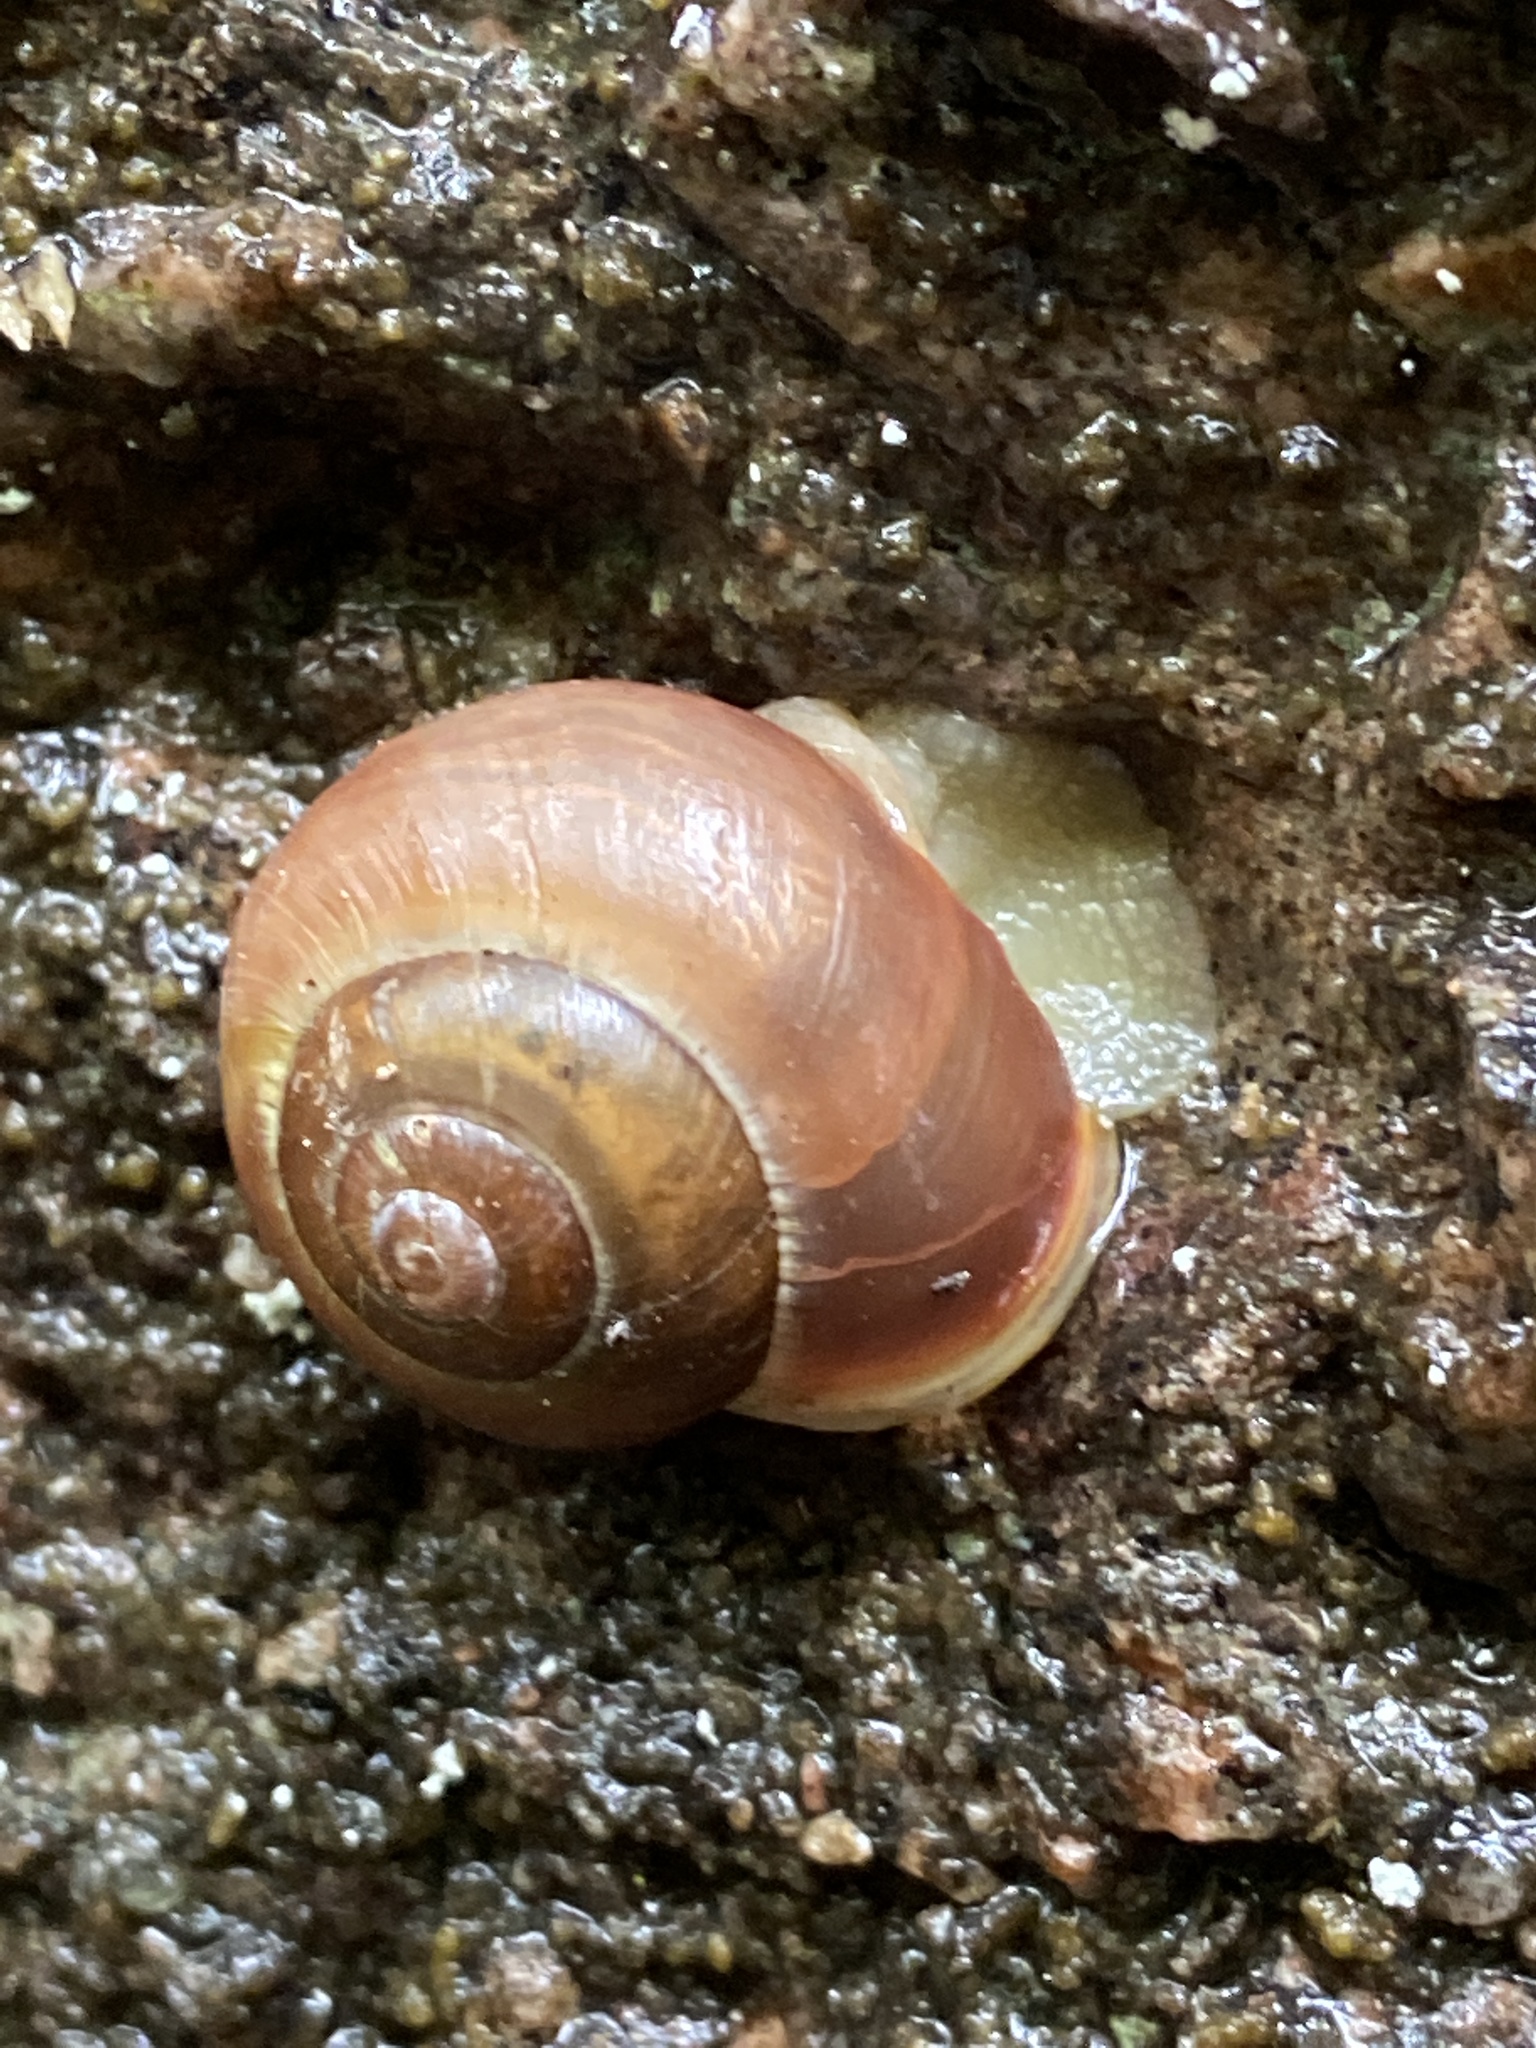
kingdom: Animalia
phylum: Mollusca
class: Gastropoda
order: Stylommatophora
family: Helicidae
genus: Cepaea
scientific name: Cepaea hortensis
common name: White-lip gardensnail
